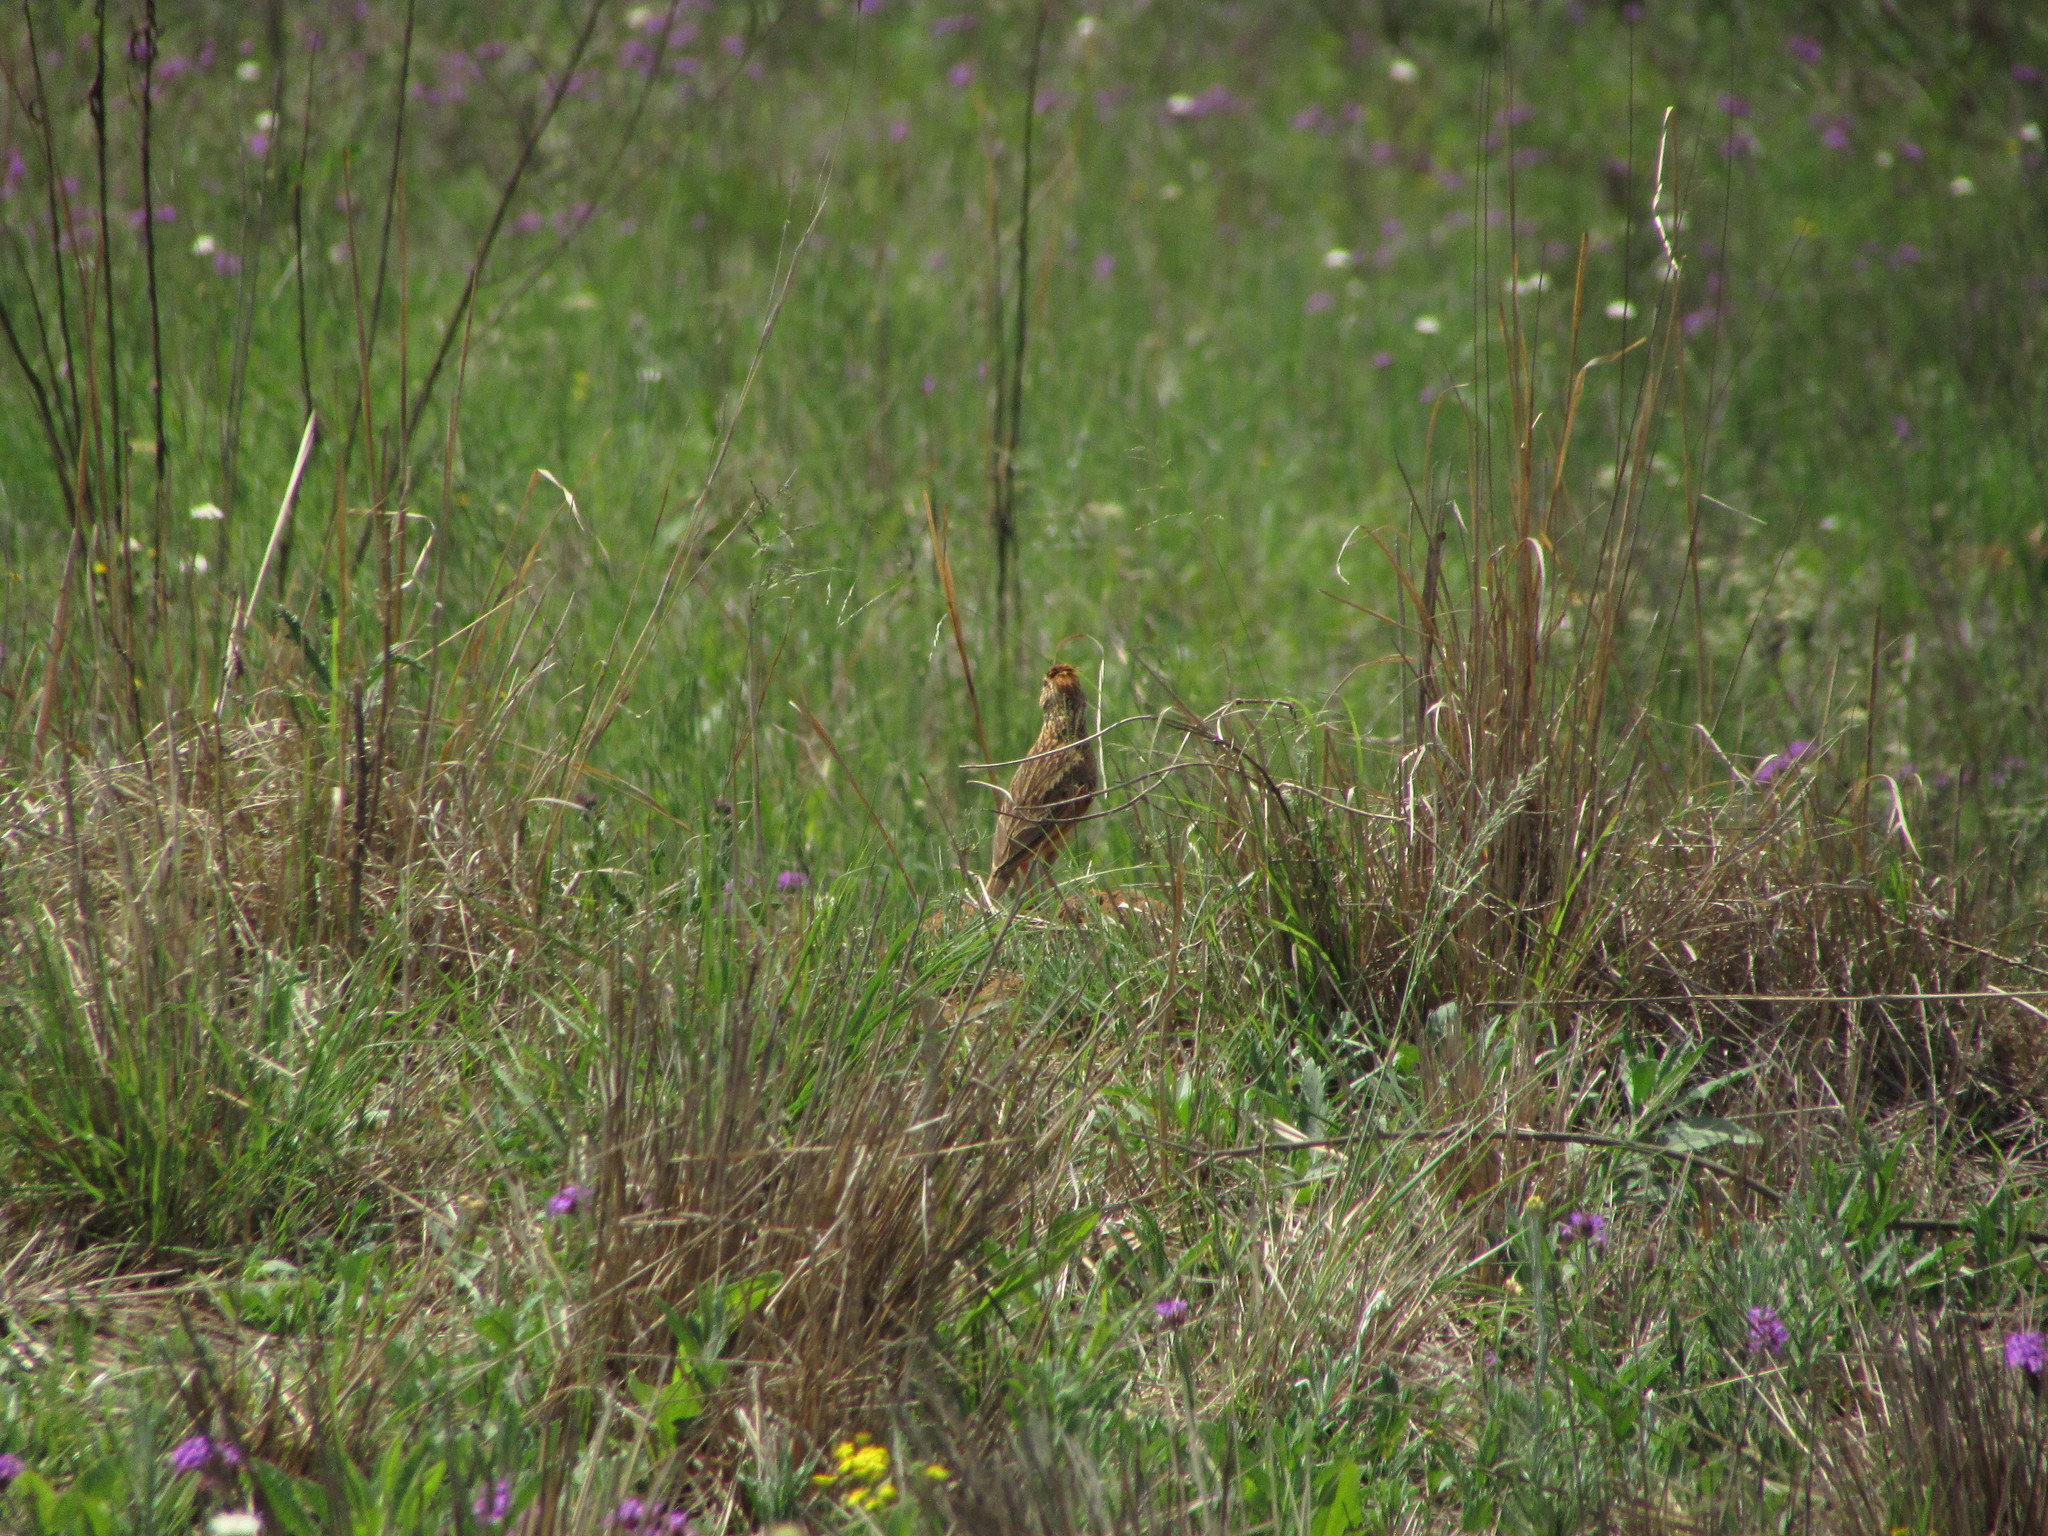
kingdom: Animalia
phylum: Chordata
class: Aves
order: Passeriformes
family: Alaudidae
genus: Mirafra
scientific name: Mirafra africana
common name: Rufous-naped lark
